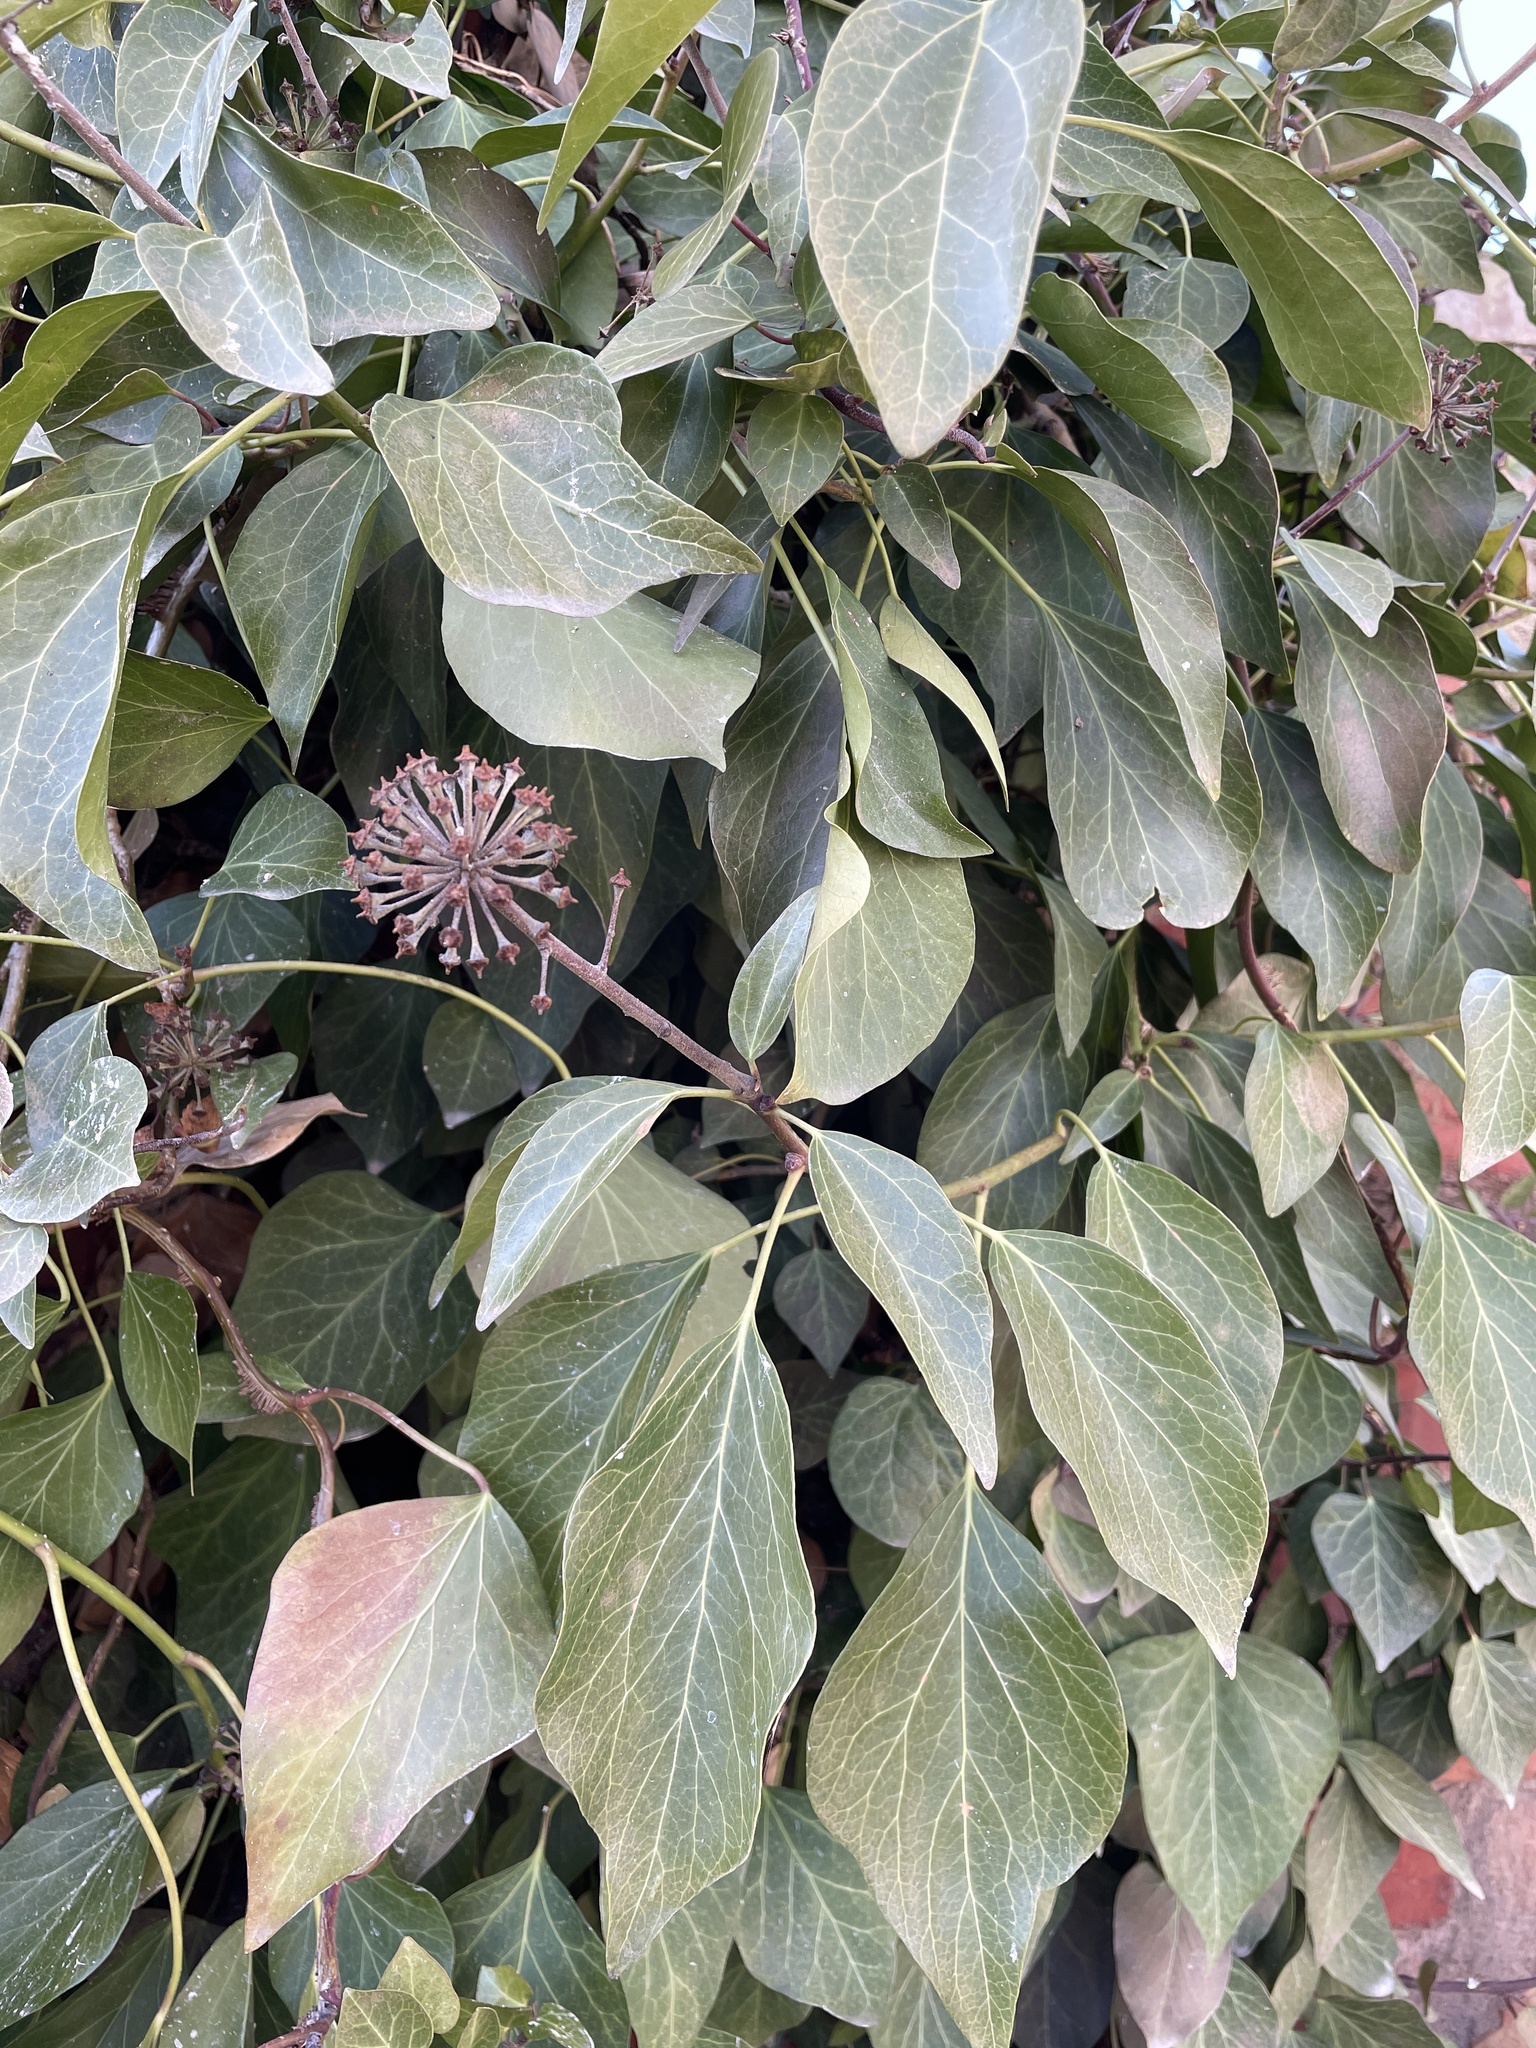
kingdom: Plantae
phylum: Tracheophyta
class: Magnoliopsida
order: Apiales
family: Araliaceae
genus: Hedera
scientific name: Hedera helix
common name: Ivy
